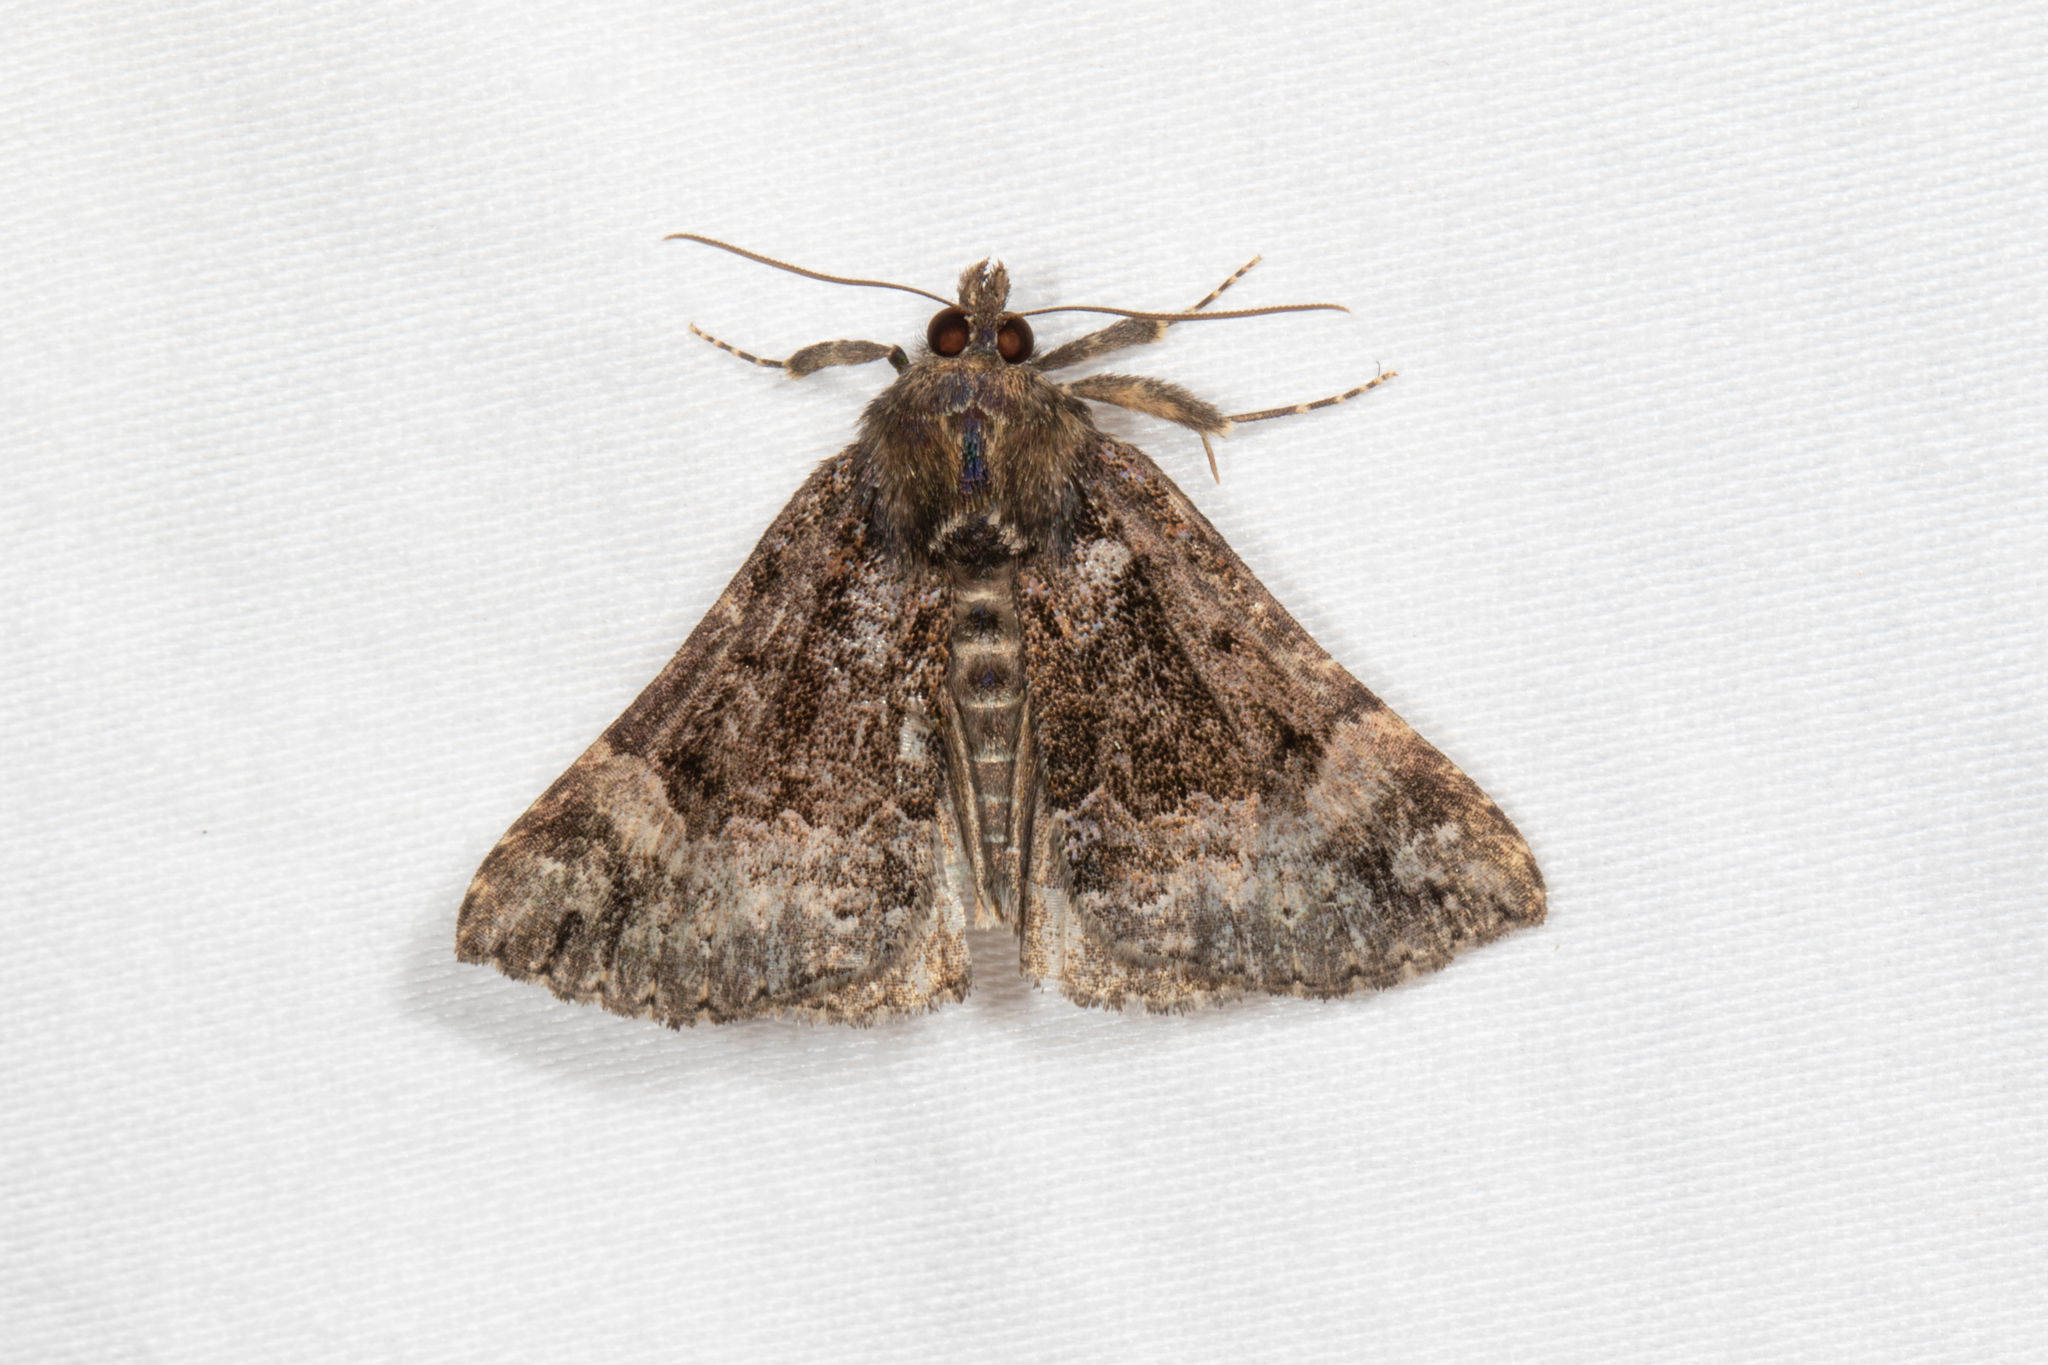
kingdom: Animalia
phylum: Arthropoda
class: Insecta
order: Lepidoptera
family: Erebidae
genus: Hypena
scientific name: Hypena palparia
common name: Mottled bomolocha moth
